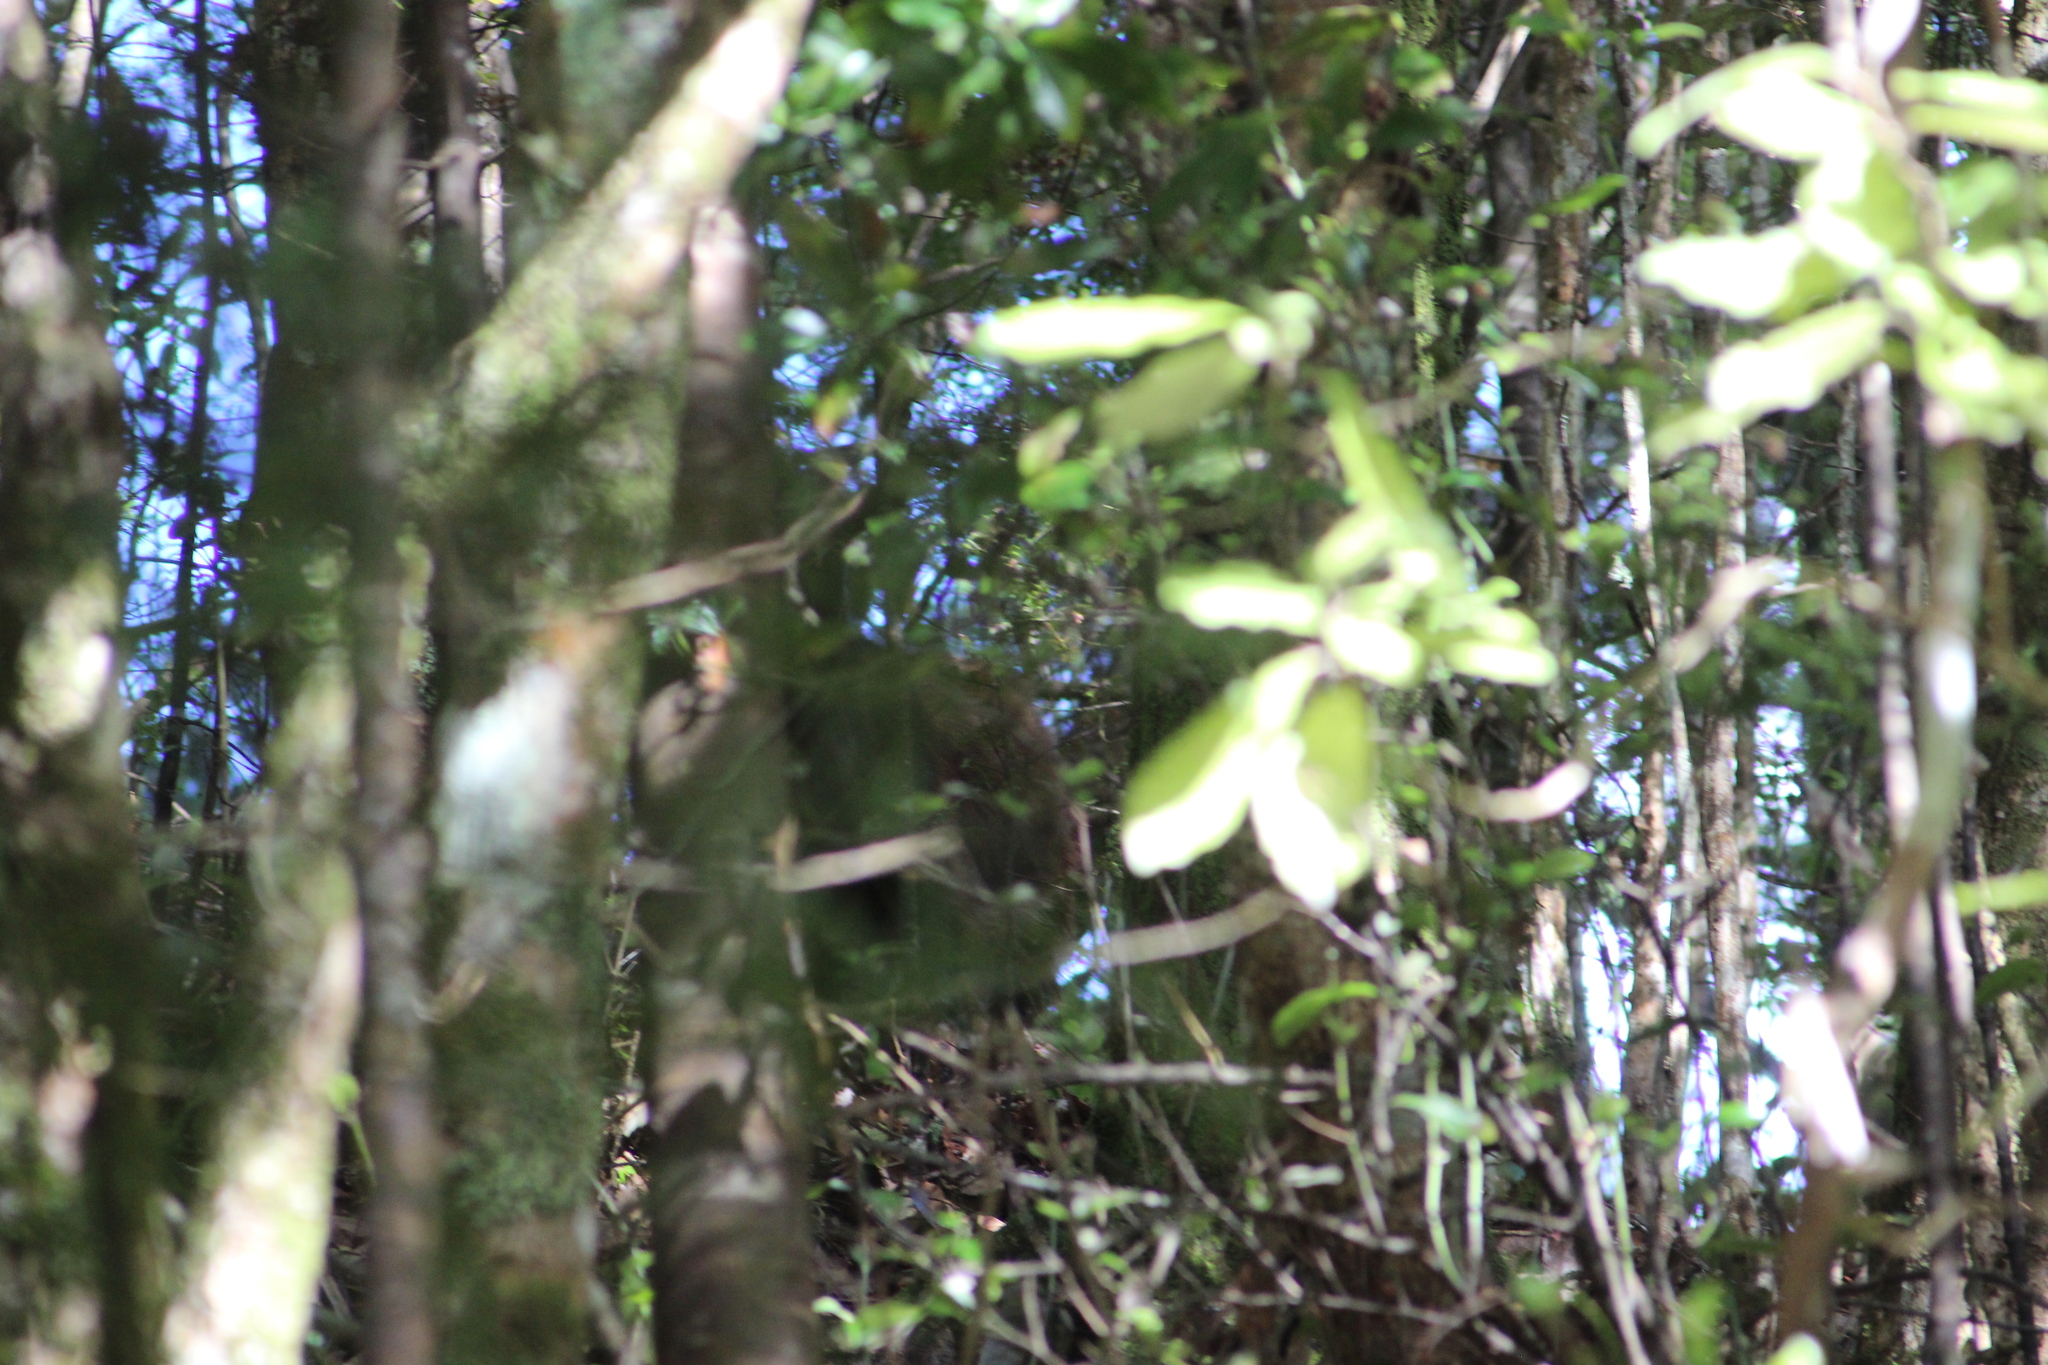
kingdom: Animalia
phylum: Chordata
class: Mammalia
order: Artiodactyla
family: Bovidae
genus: Capra
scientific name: Capra hircus
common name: Domestic goat
